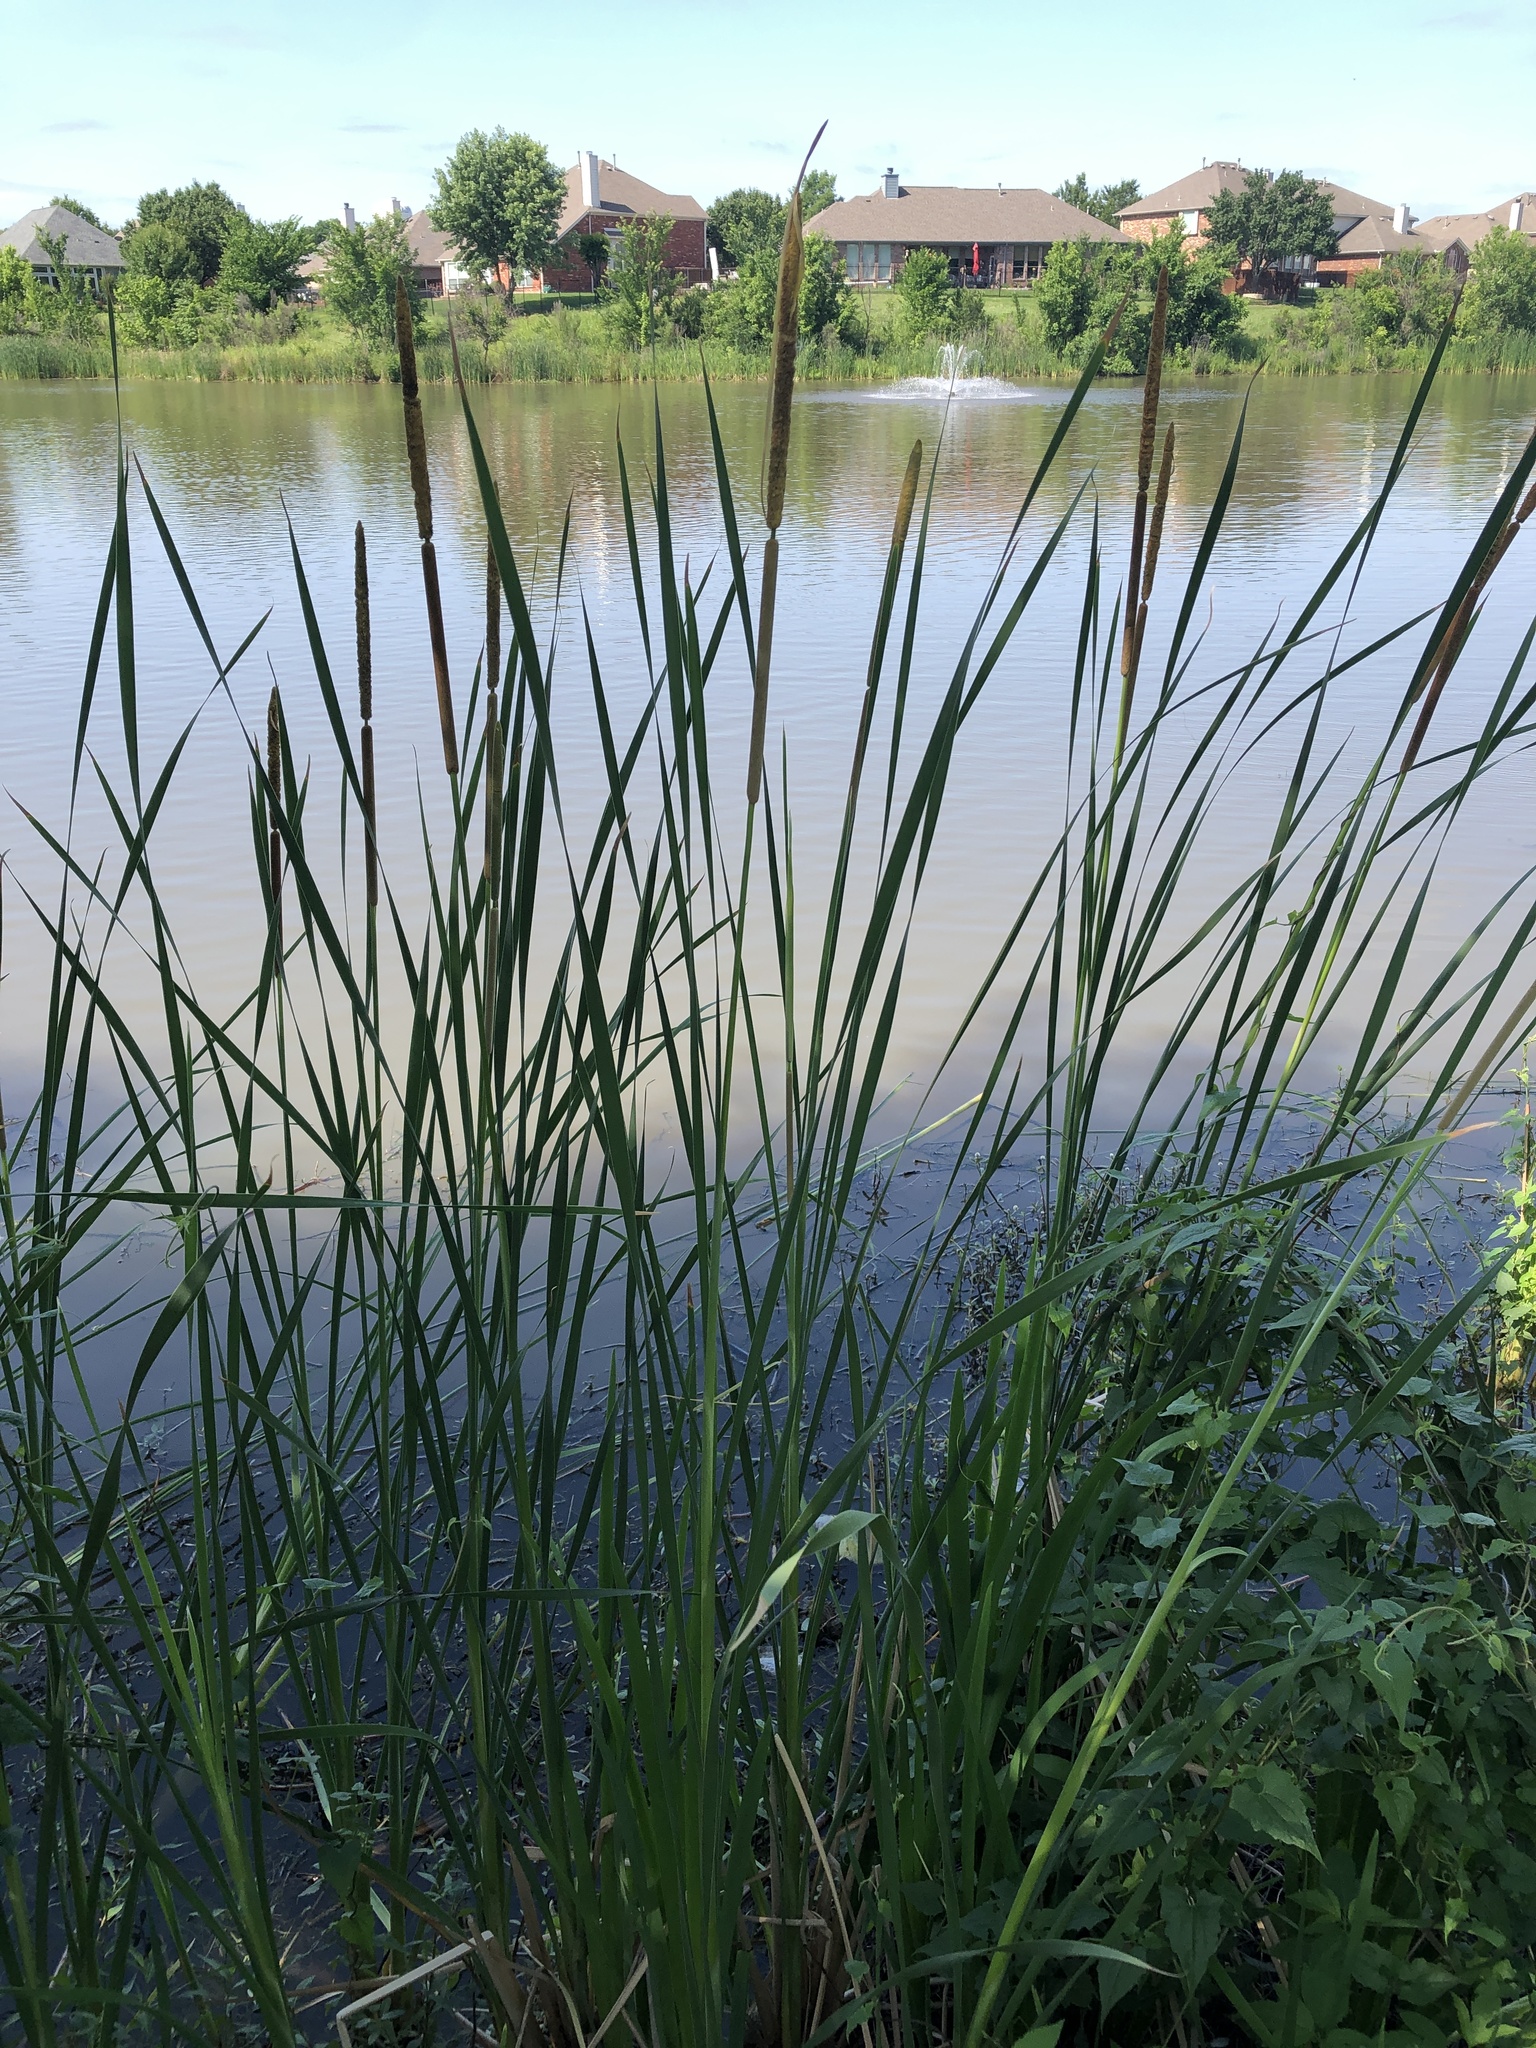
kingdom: Plantae
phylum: Tracheophyta
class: Liliopsida
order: Poales
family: Typhaceae
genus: Typha
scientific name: Typha domingensis
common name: Southern cattail
